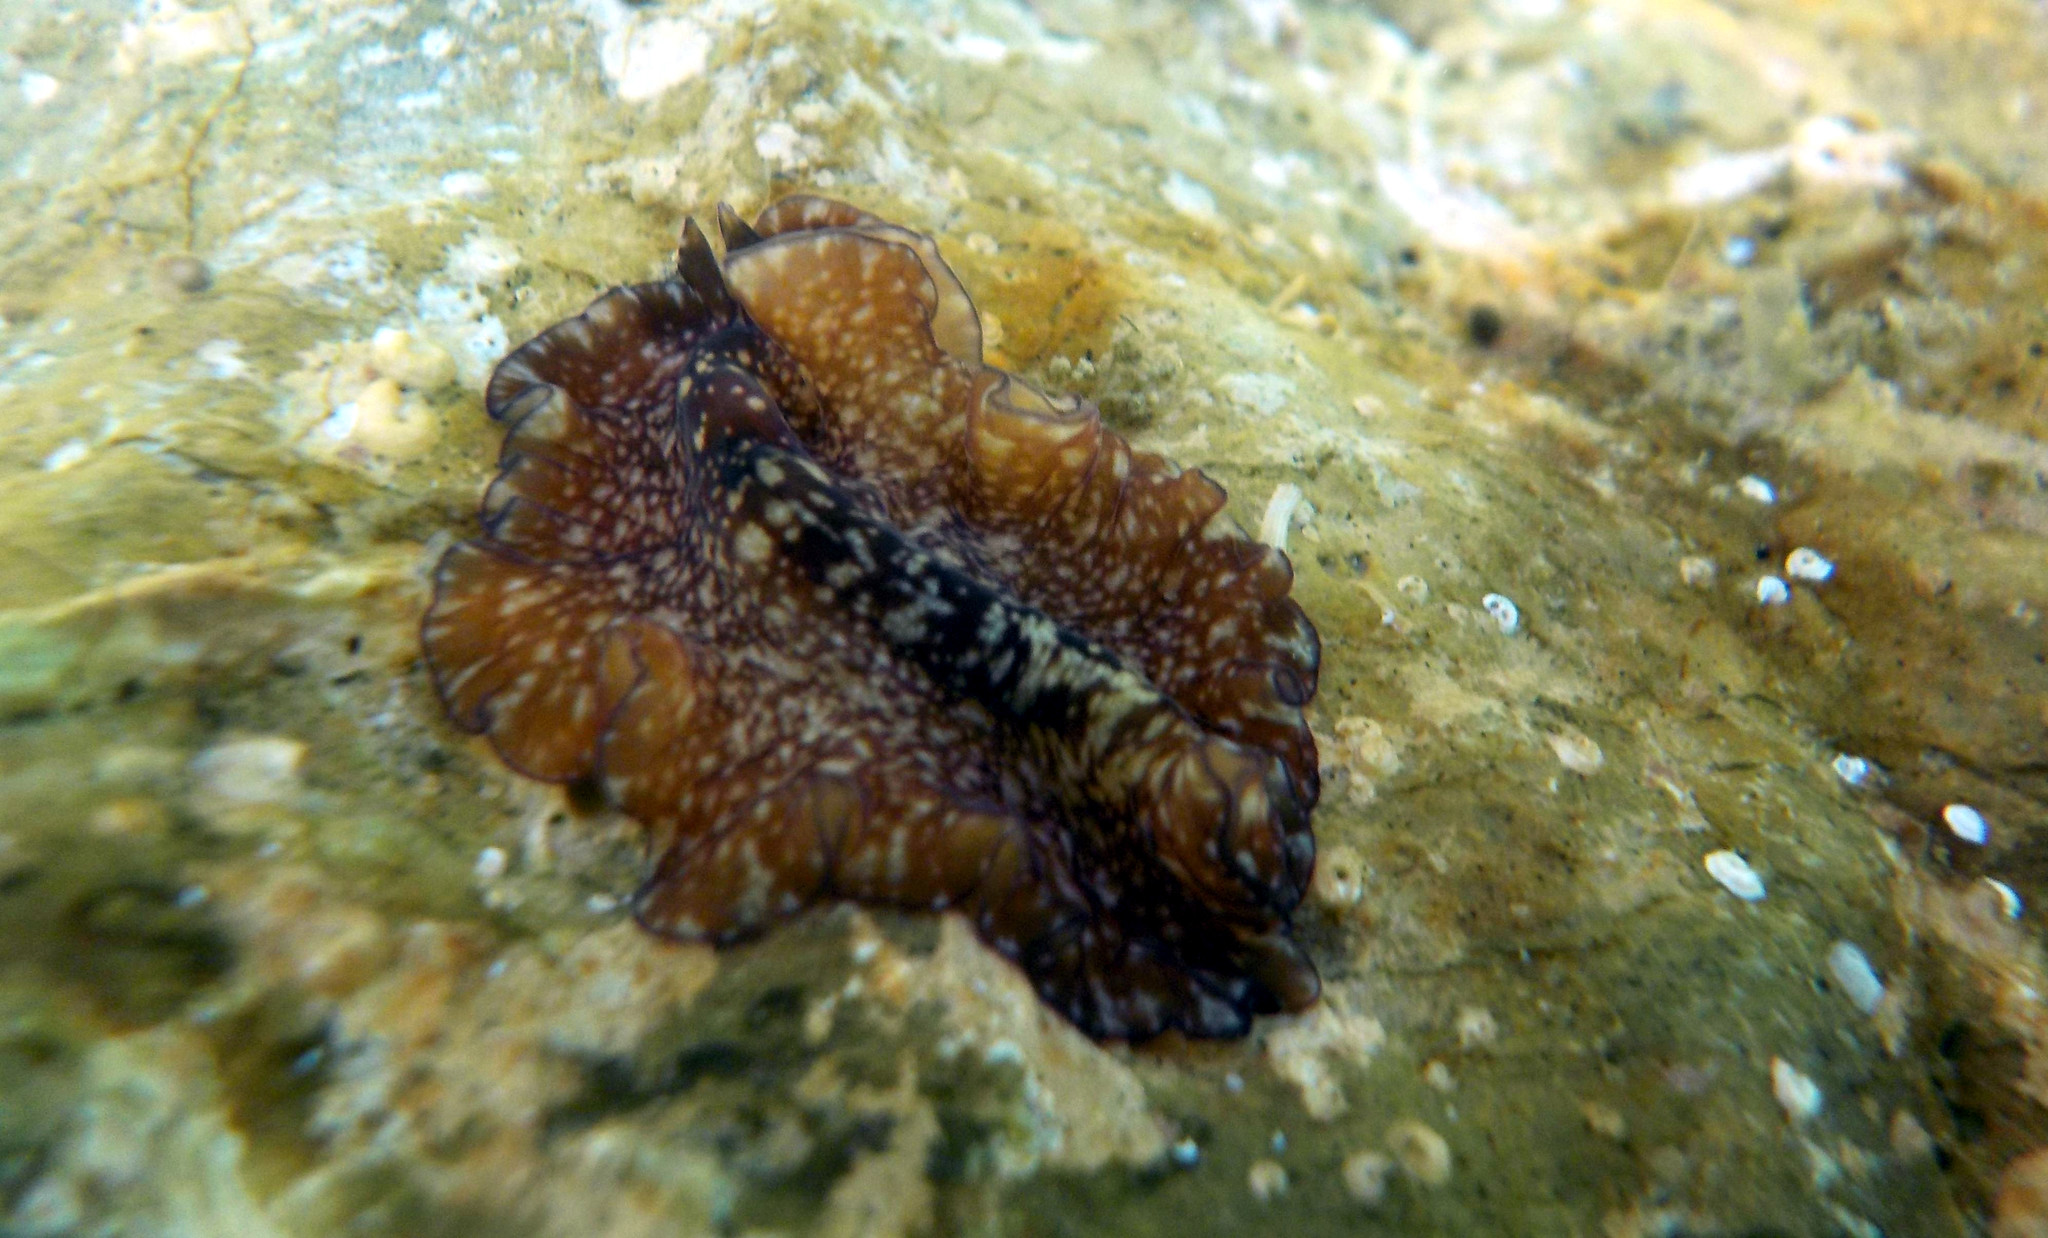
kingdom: Animalia
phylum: Platyhelminthes
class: Turbellaria
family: Pseudocerotidae
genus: Monobiceros
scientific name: Monobiceros langi
